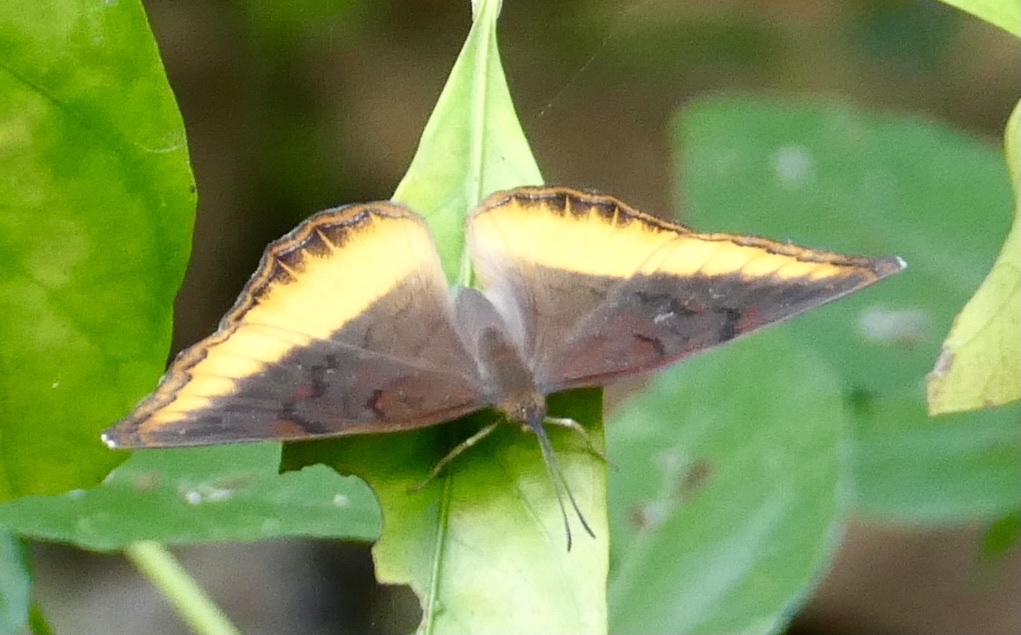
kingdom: Animalia
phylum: Arthropoda
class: Insecta
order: Lepidoptera
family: Nymphalidae
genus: Eurytela
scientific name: Eurytela dryope
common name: Golden piper
